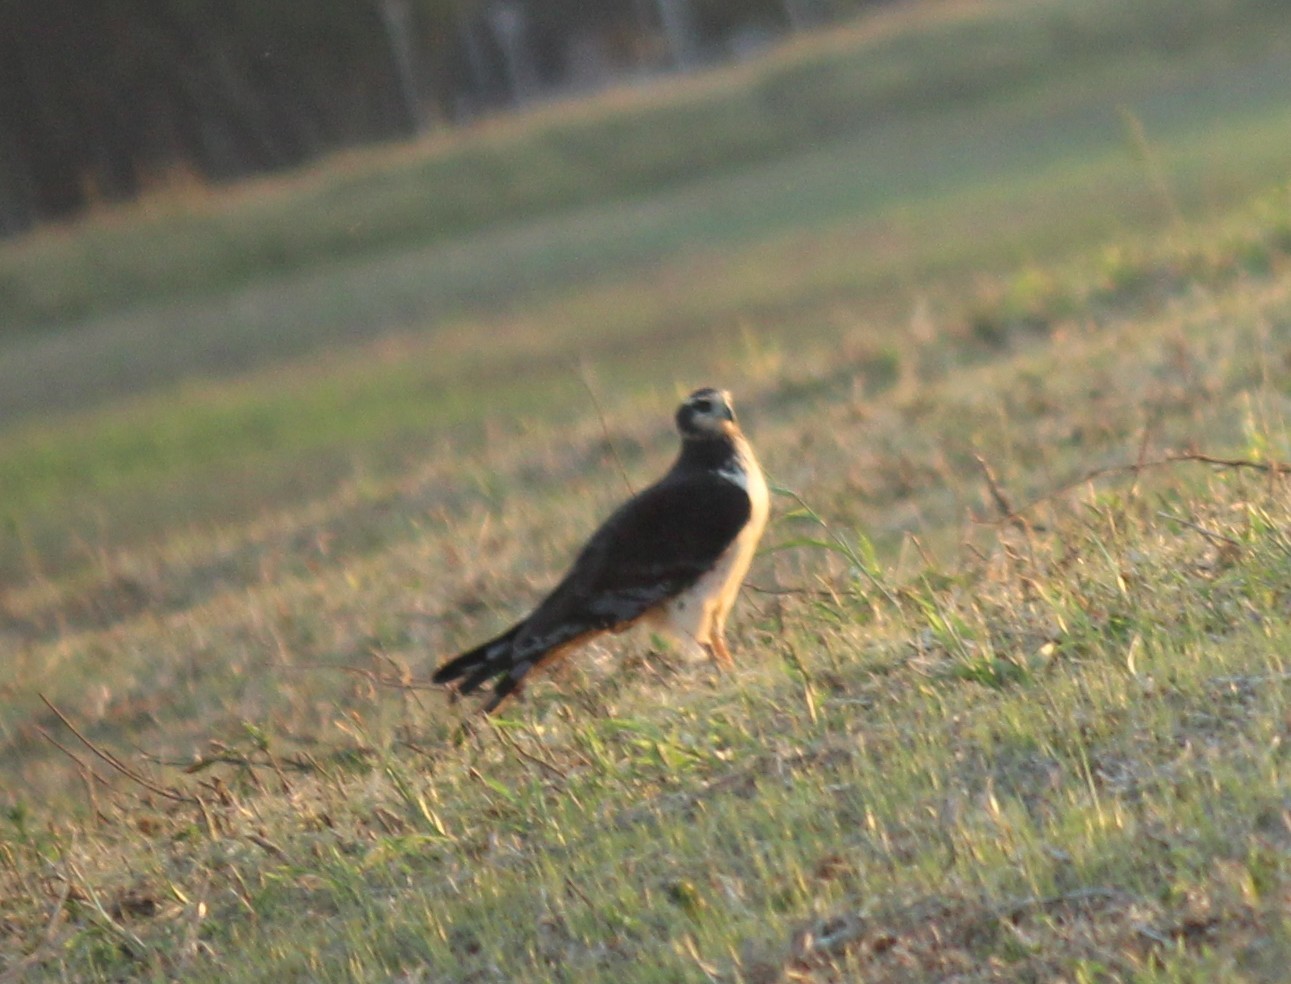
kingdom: Animalia
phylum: Chordata
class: Aves
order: Accipitriformes
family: Accipitridae
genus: Circus
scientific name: Circus buffoni
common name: Long-winged harrier
